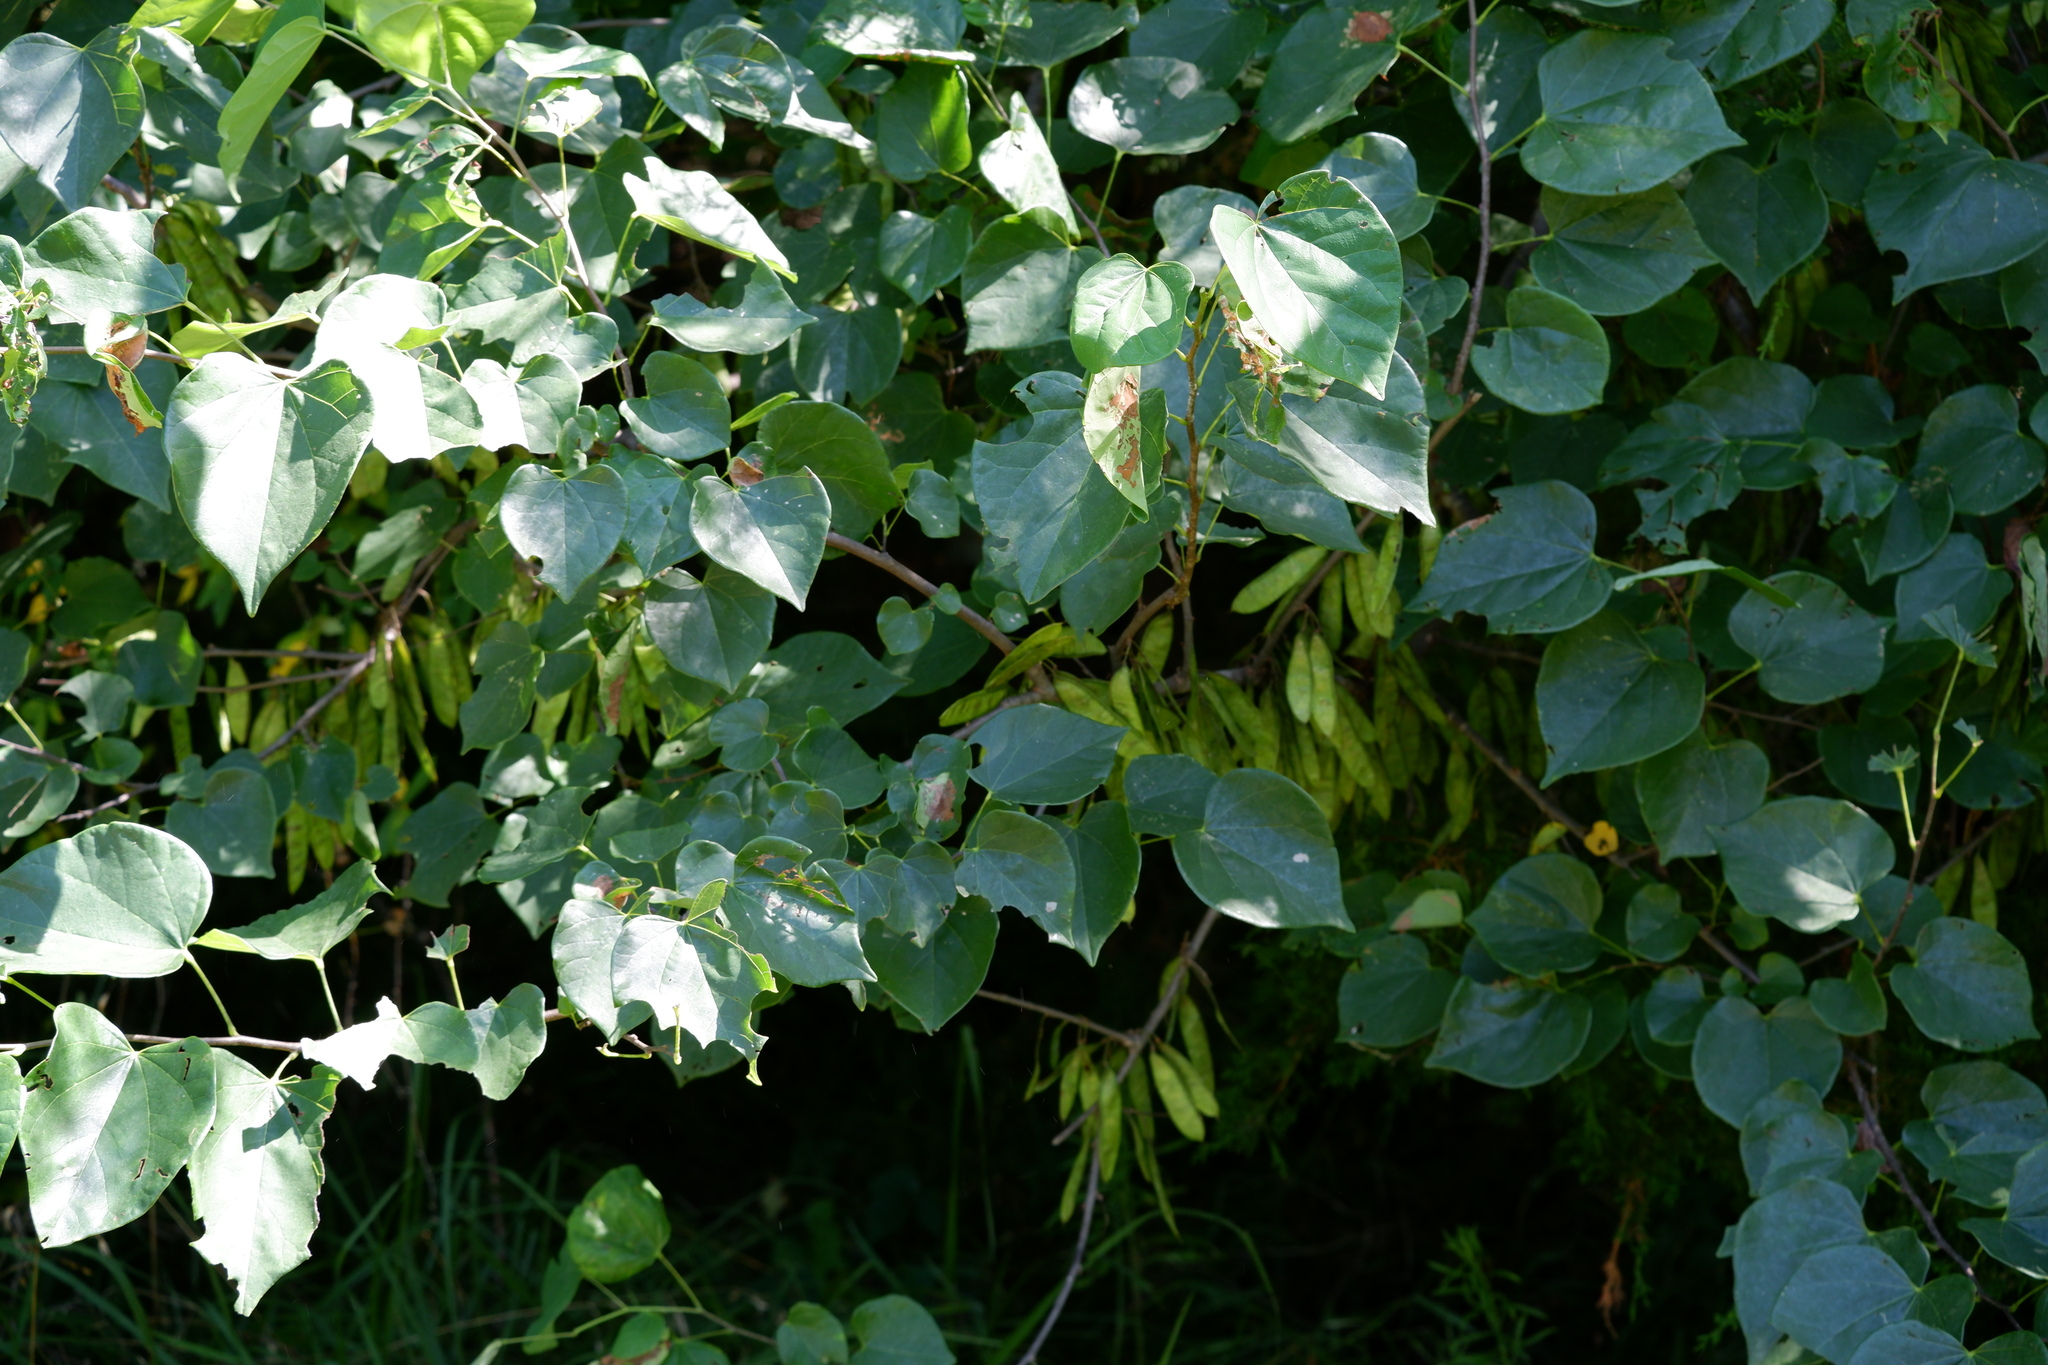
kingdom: Plantae
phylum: Tracheophyta
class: Magnoliopsida
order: Fabales
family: Fabaceae
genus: Cercis
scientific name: Cercis canadensis
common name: Eastern redbud
